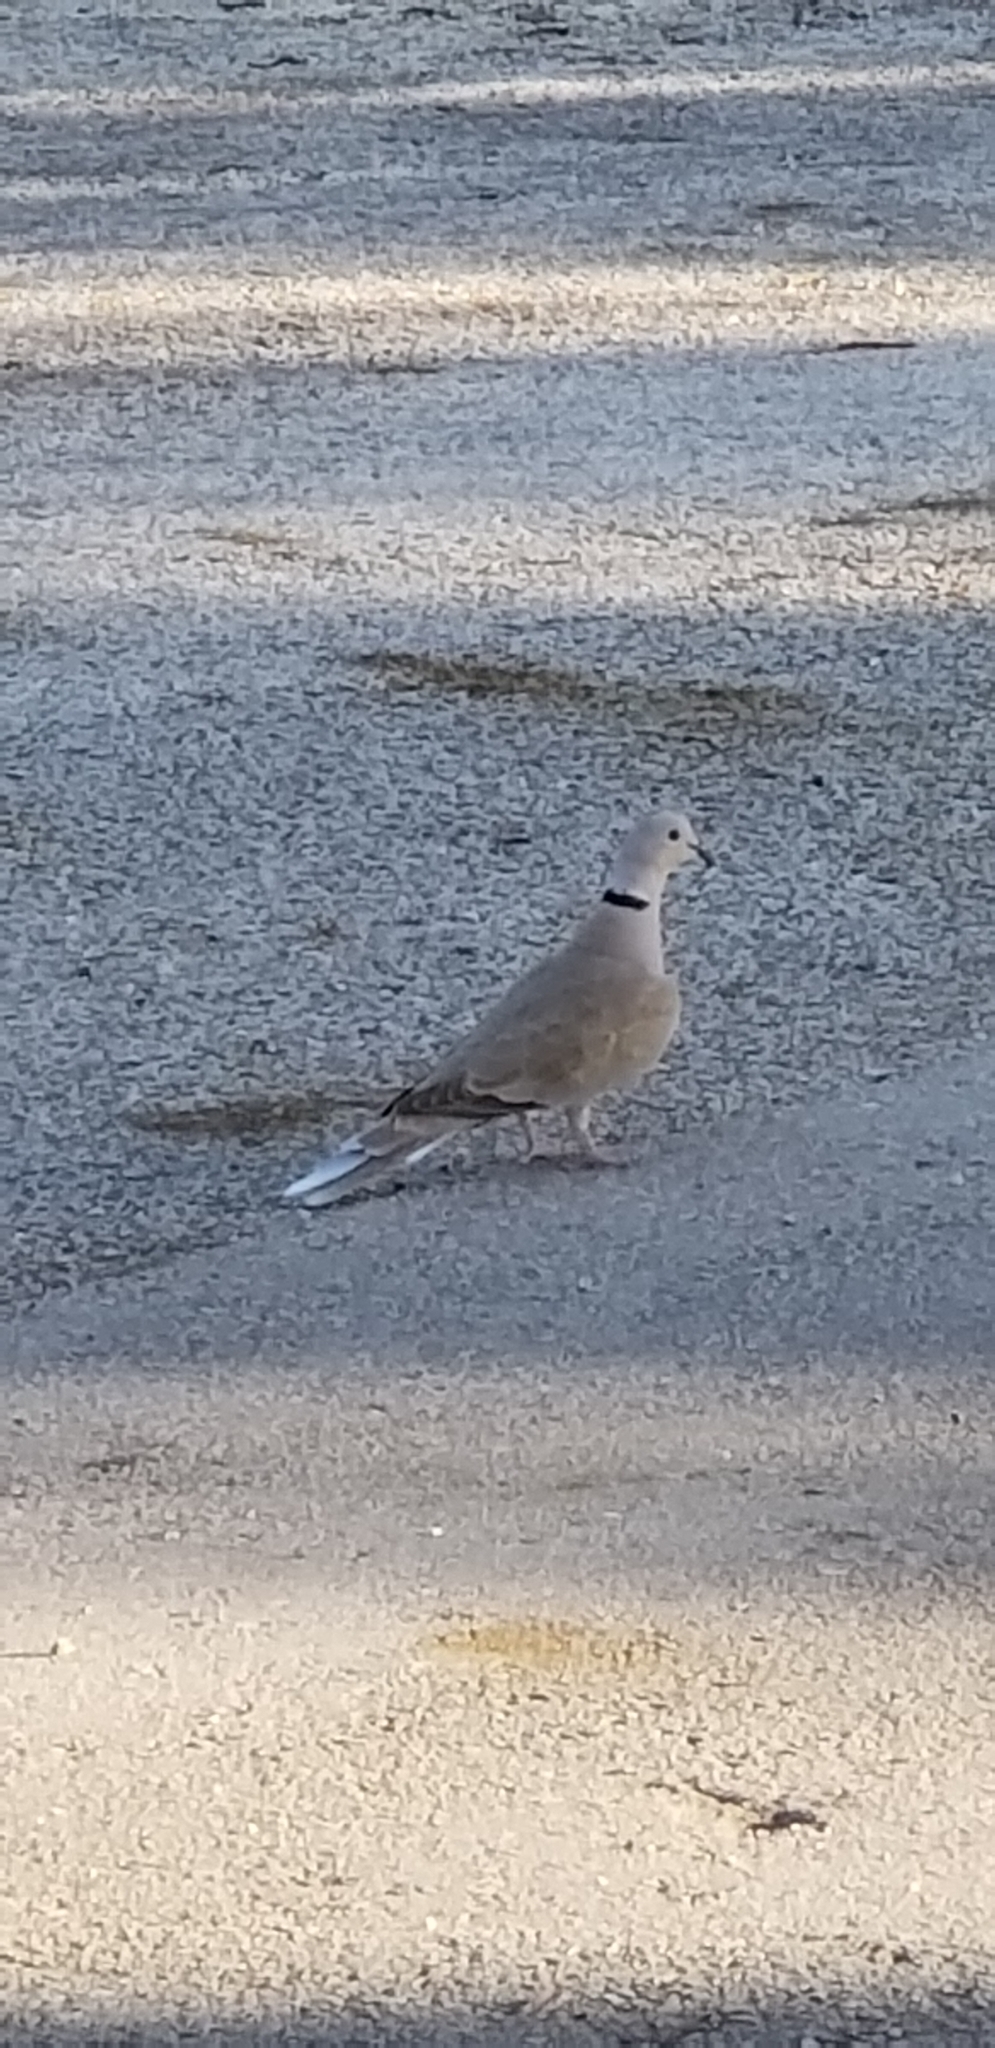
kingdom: Animalia
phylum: Chordata
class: Aves
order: Columbiformes
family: Columbidae
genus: Streptopelia
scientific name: Streptopelia decaocto
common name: Eurasian collared dove
